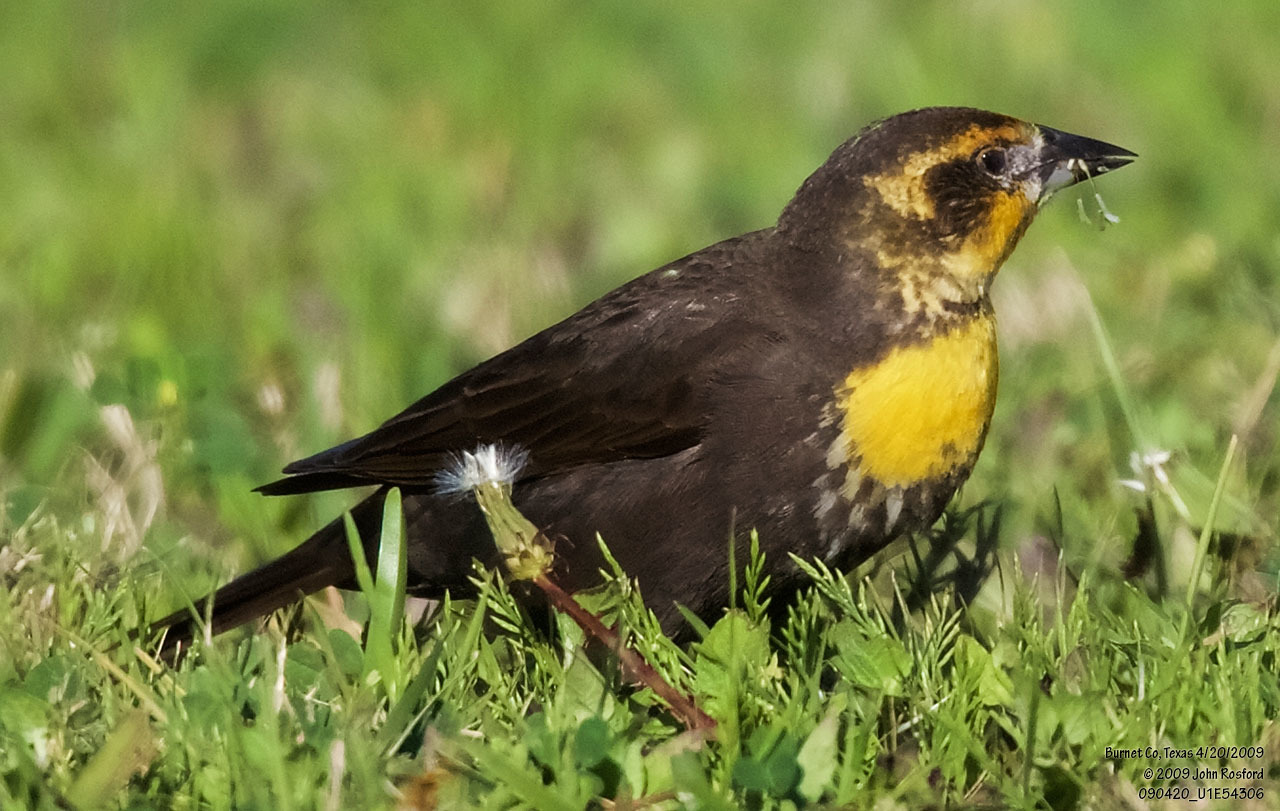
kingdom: Animalia
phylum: Chordata
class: Aves
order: Passeriformes
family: Icteridae
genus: Xanthocephalus
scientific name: Xanthocephalus xanthocephalus
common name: Yellow-headed blackbird
